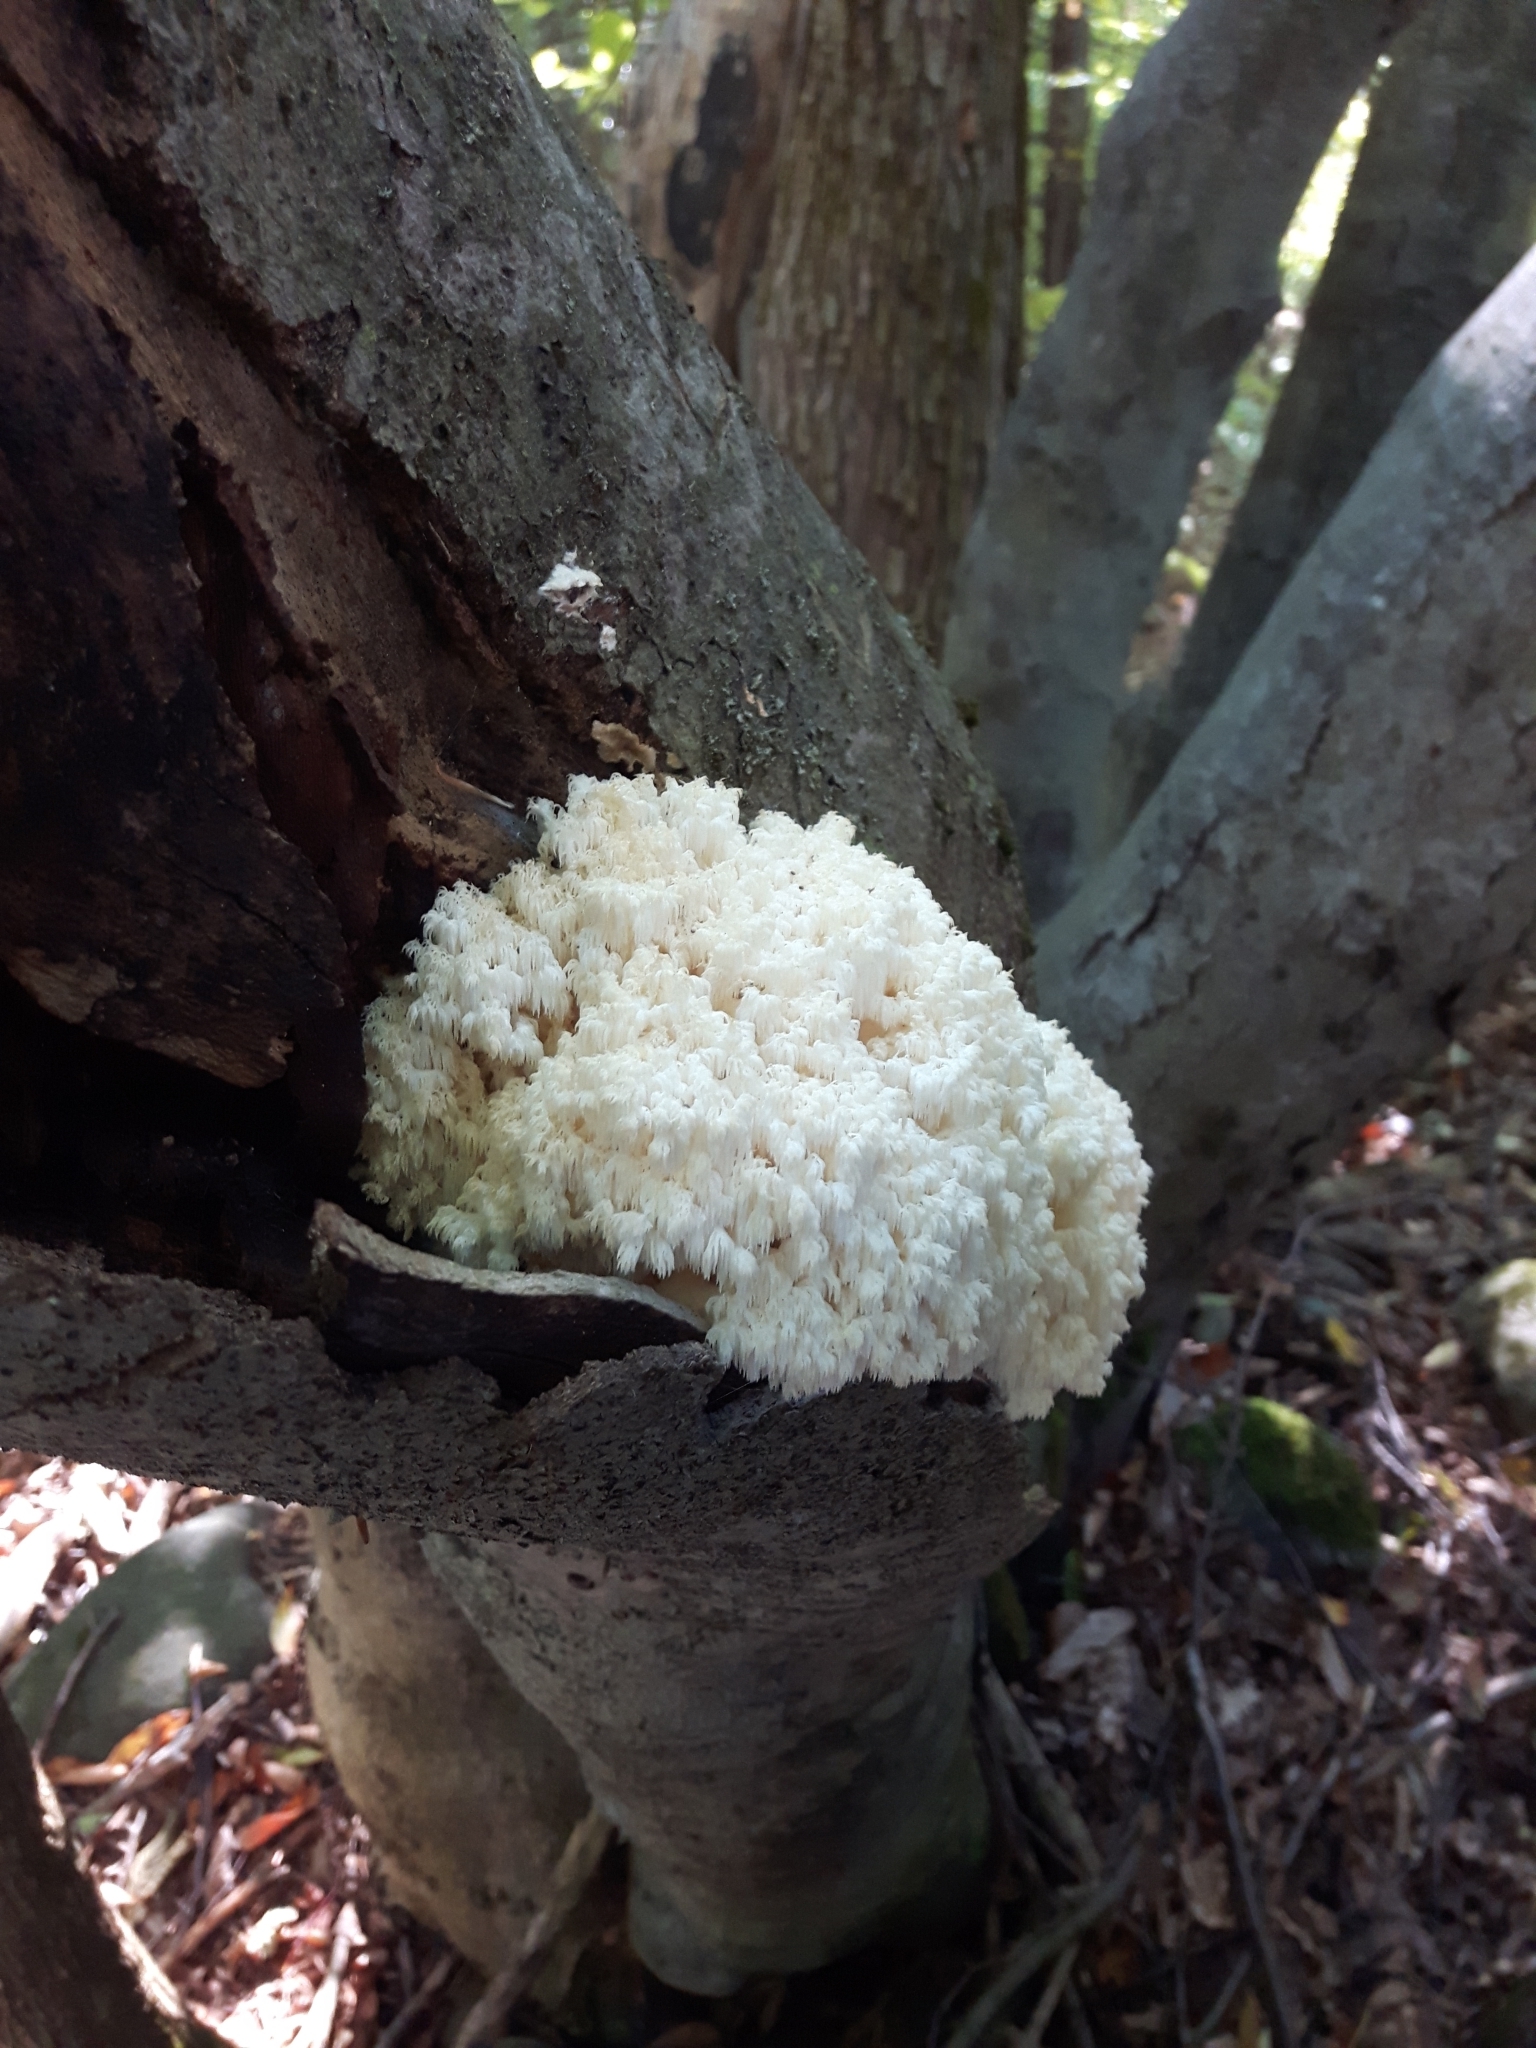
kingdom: Fungi
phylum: Basidiomycota
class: Agaricomycetes
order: Russulales
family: Hericiaceae
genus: Hericium
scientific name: Hericium coralloides
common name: Coral tooth
